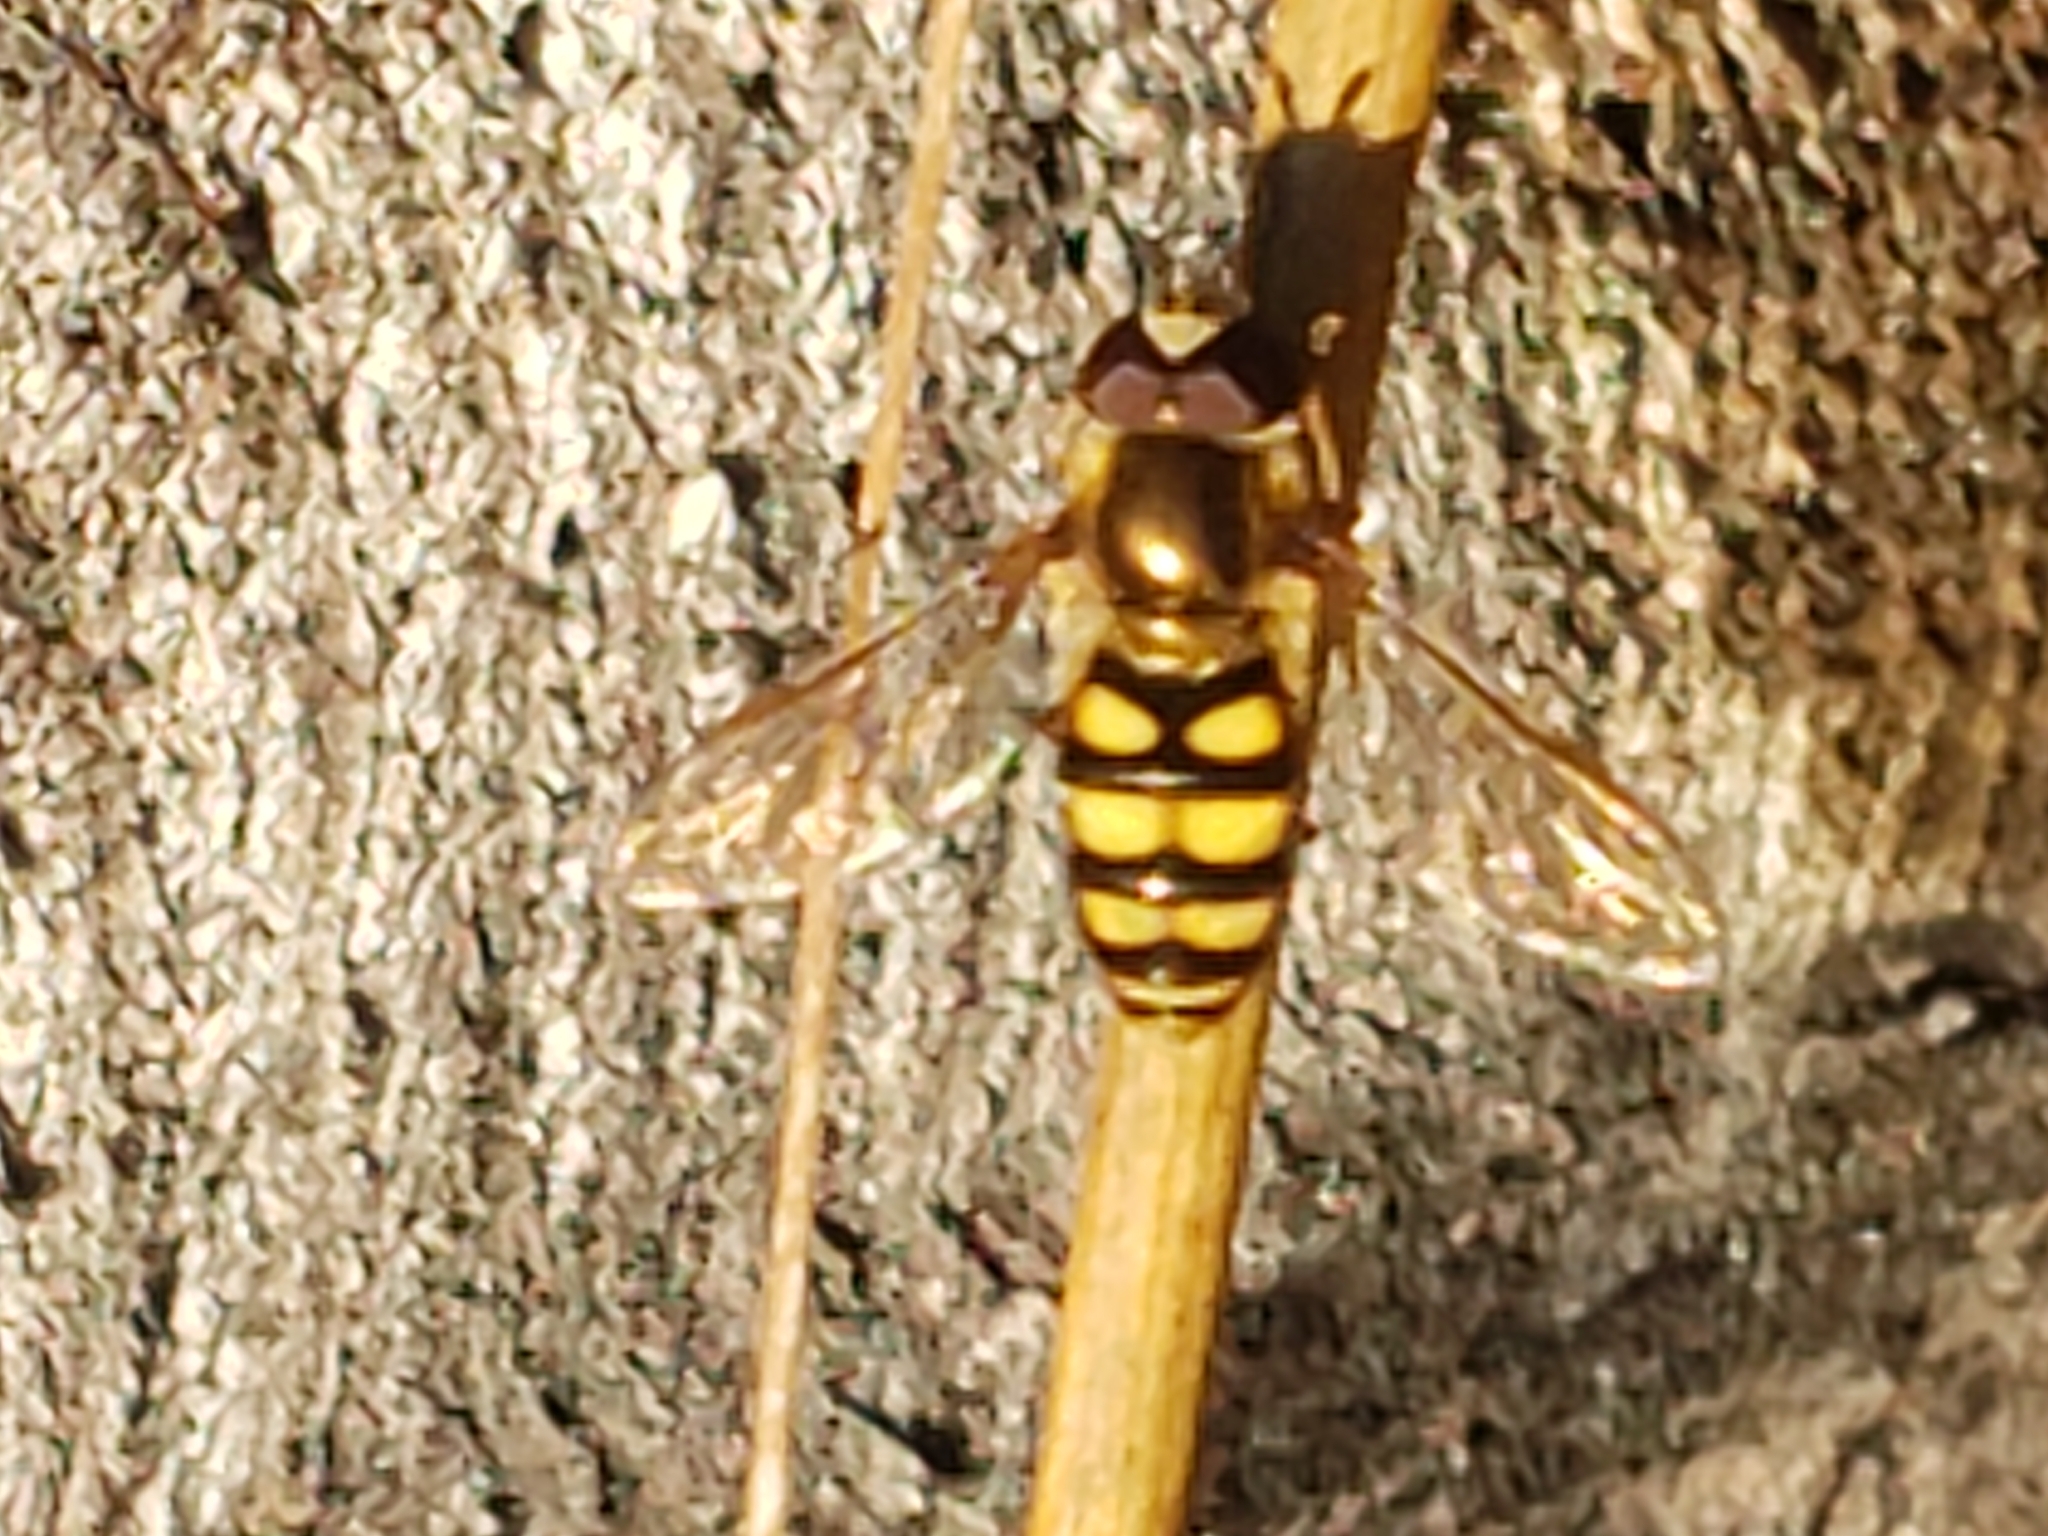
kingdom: Animalia
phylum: Arthropoda
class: Insecta
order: Diptera
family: Syrphidae
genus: Eupeodes
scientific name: Eupeodes
